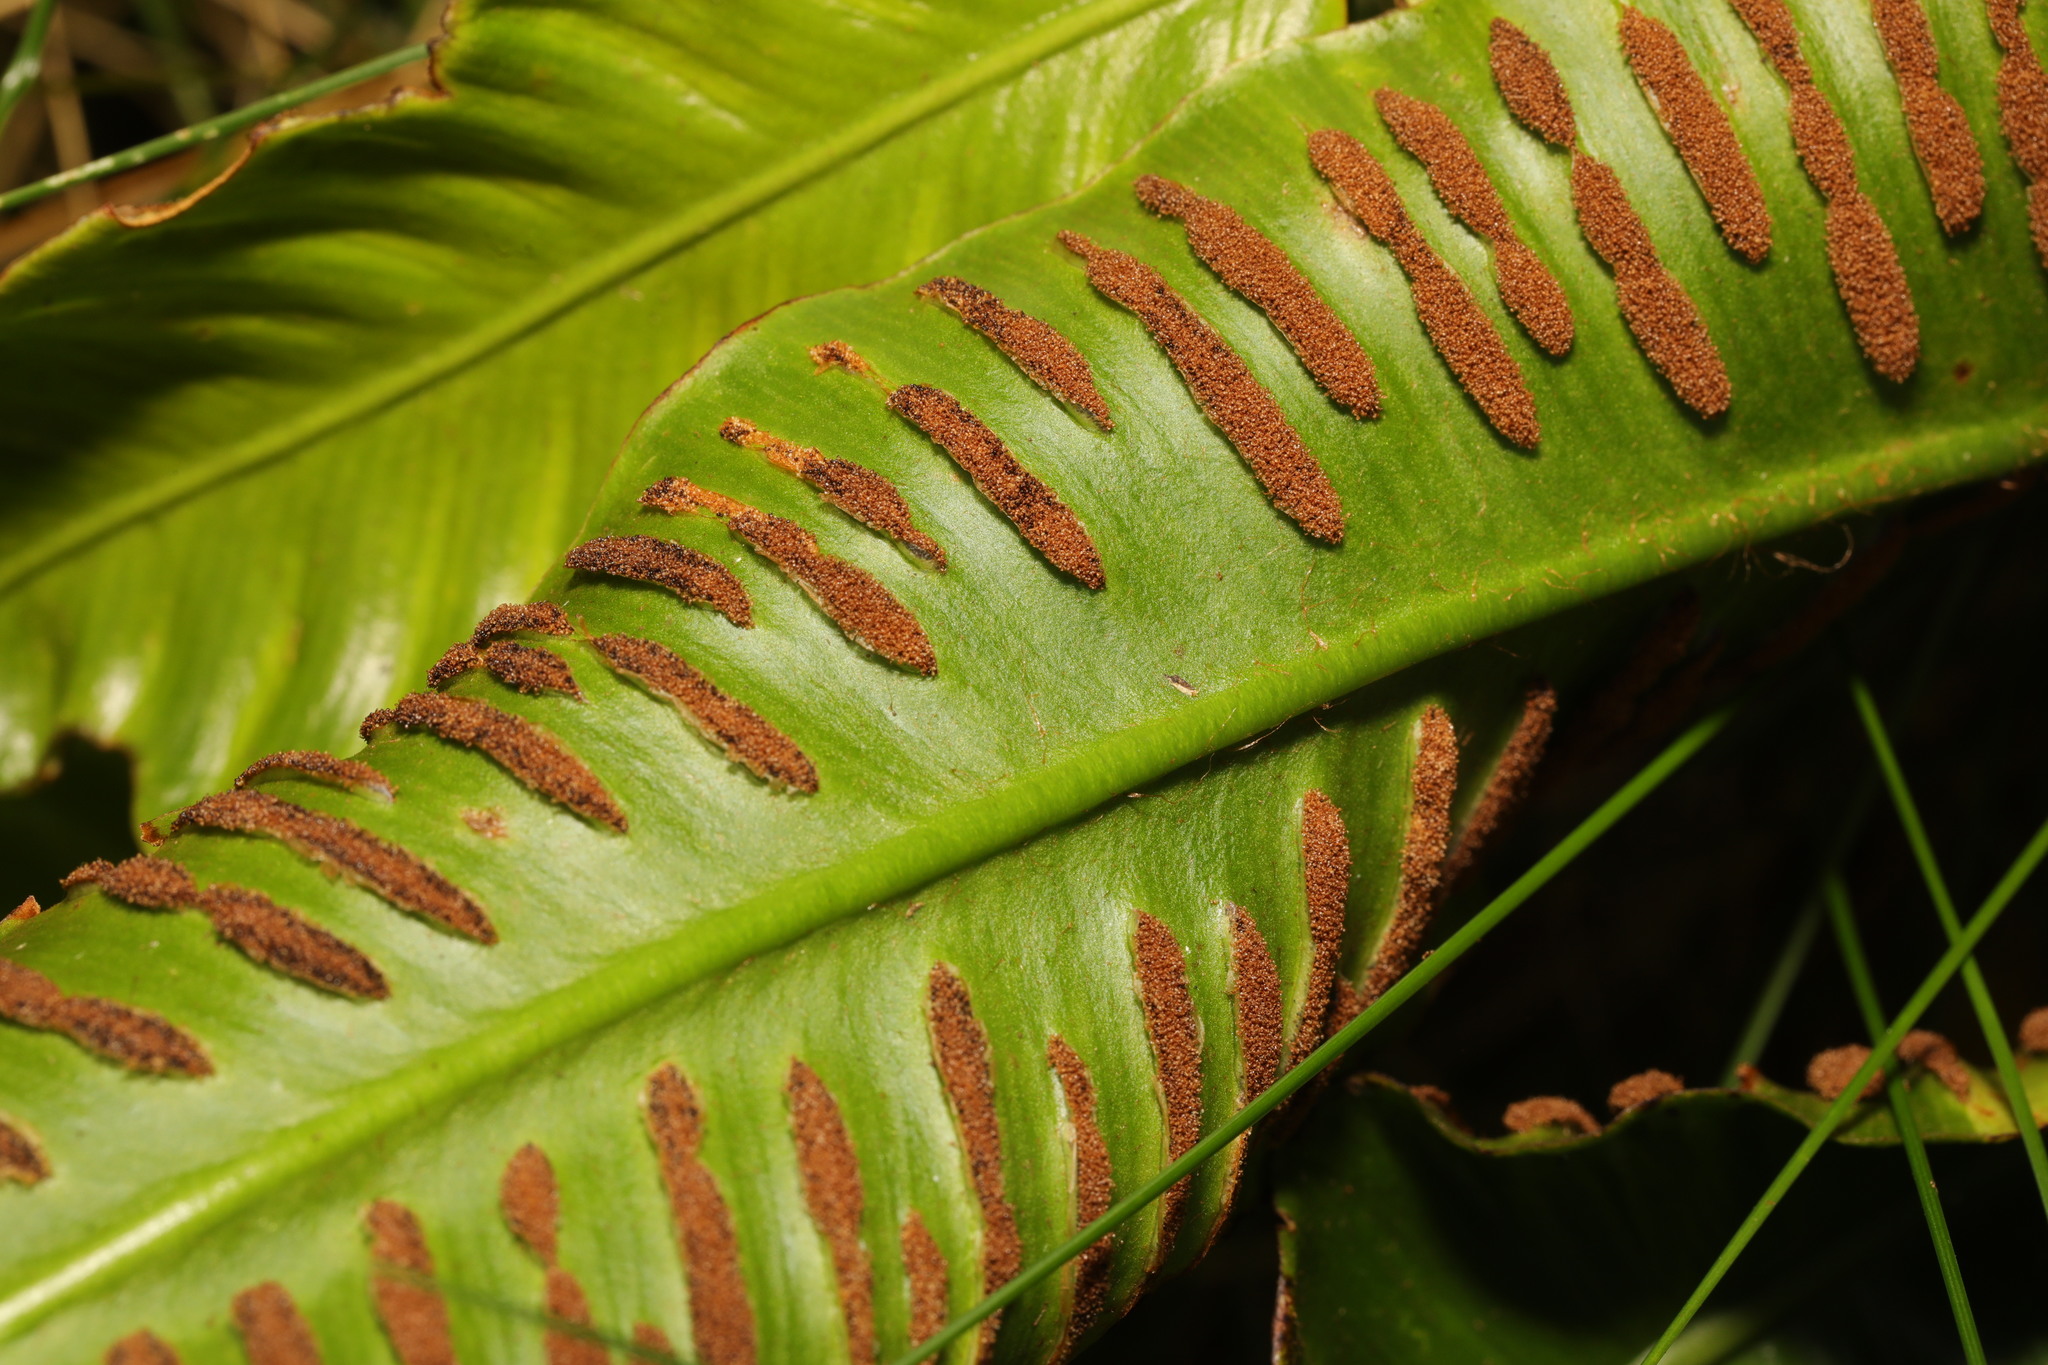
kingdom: Plantae
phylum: Tracheophyta
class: Polypodiopsida
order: Polypodiales
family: Aspleniaceae
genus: Asplenium
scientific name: Asplenium scolopendrium
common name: Hart's-tongue fern
